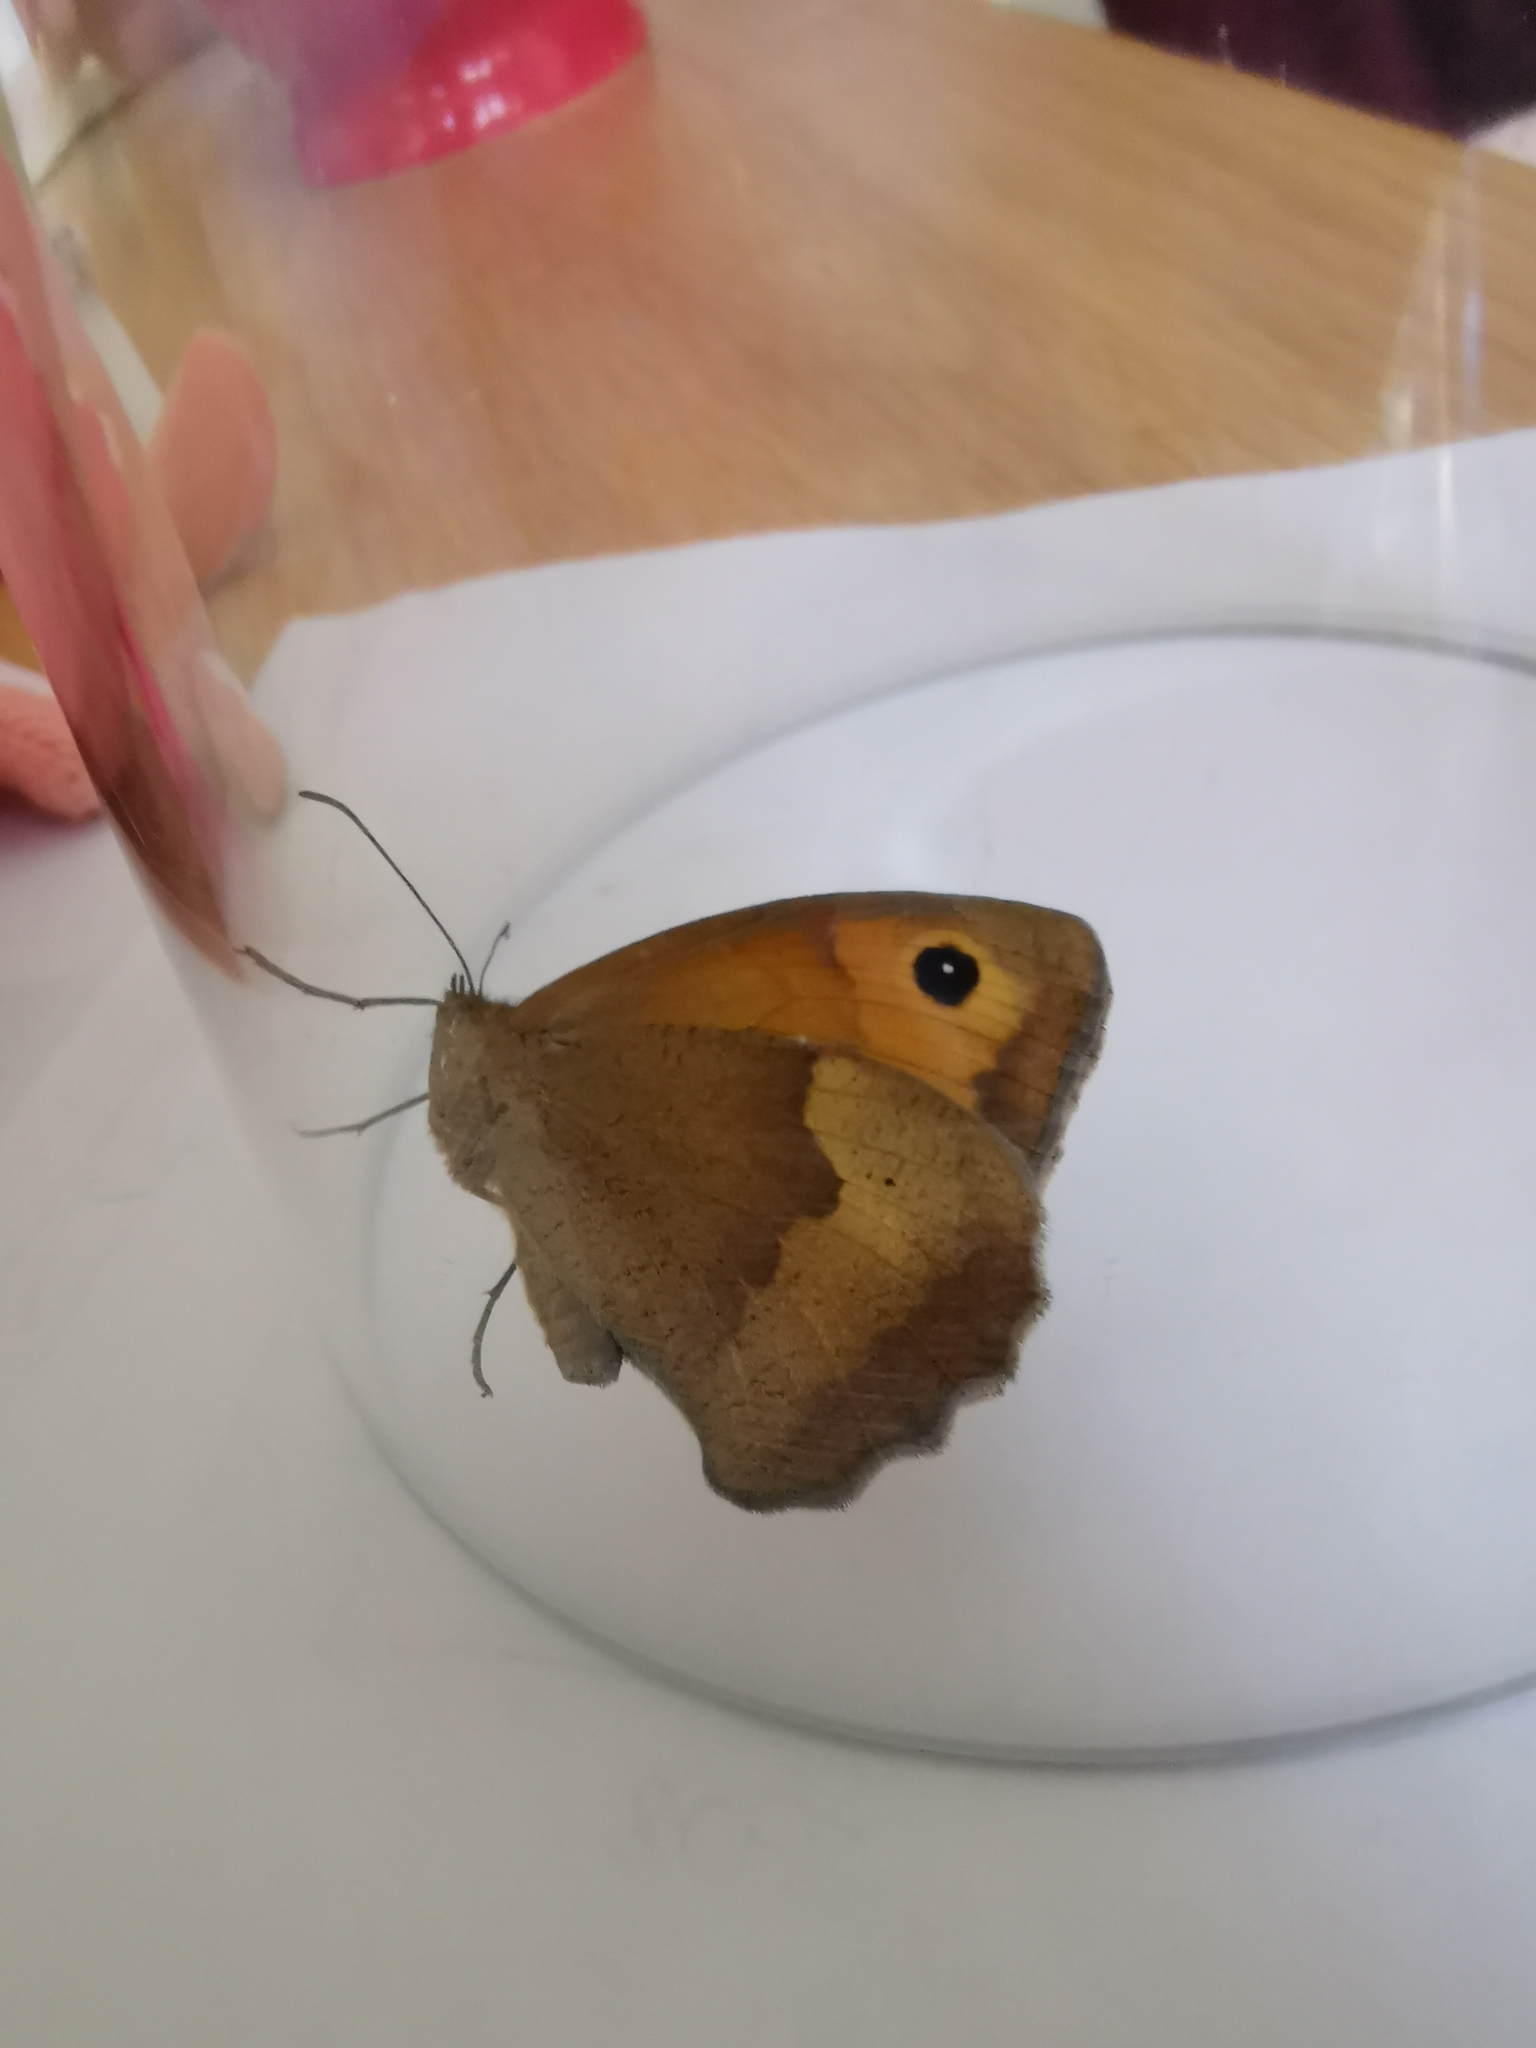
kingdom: Animalia
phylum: Arthropoda
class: Insecta
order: Lepidoptera
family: Nymphalidae
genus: Maniola
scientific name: Maniola jurtina
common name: Meadow brown
